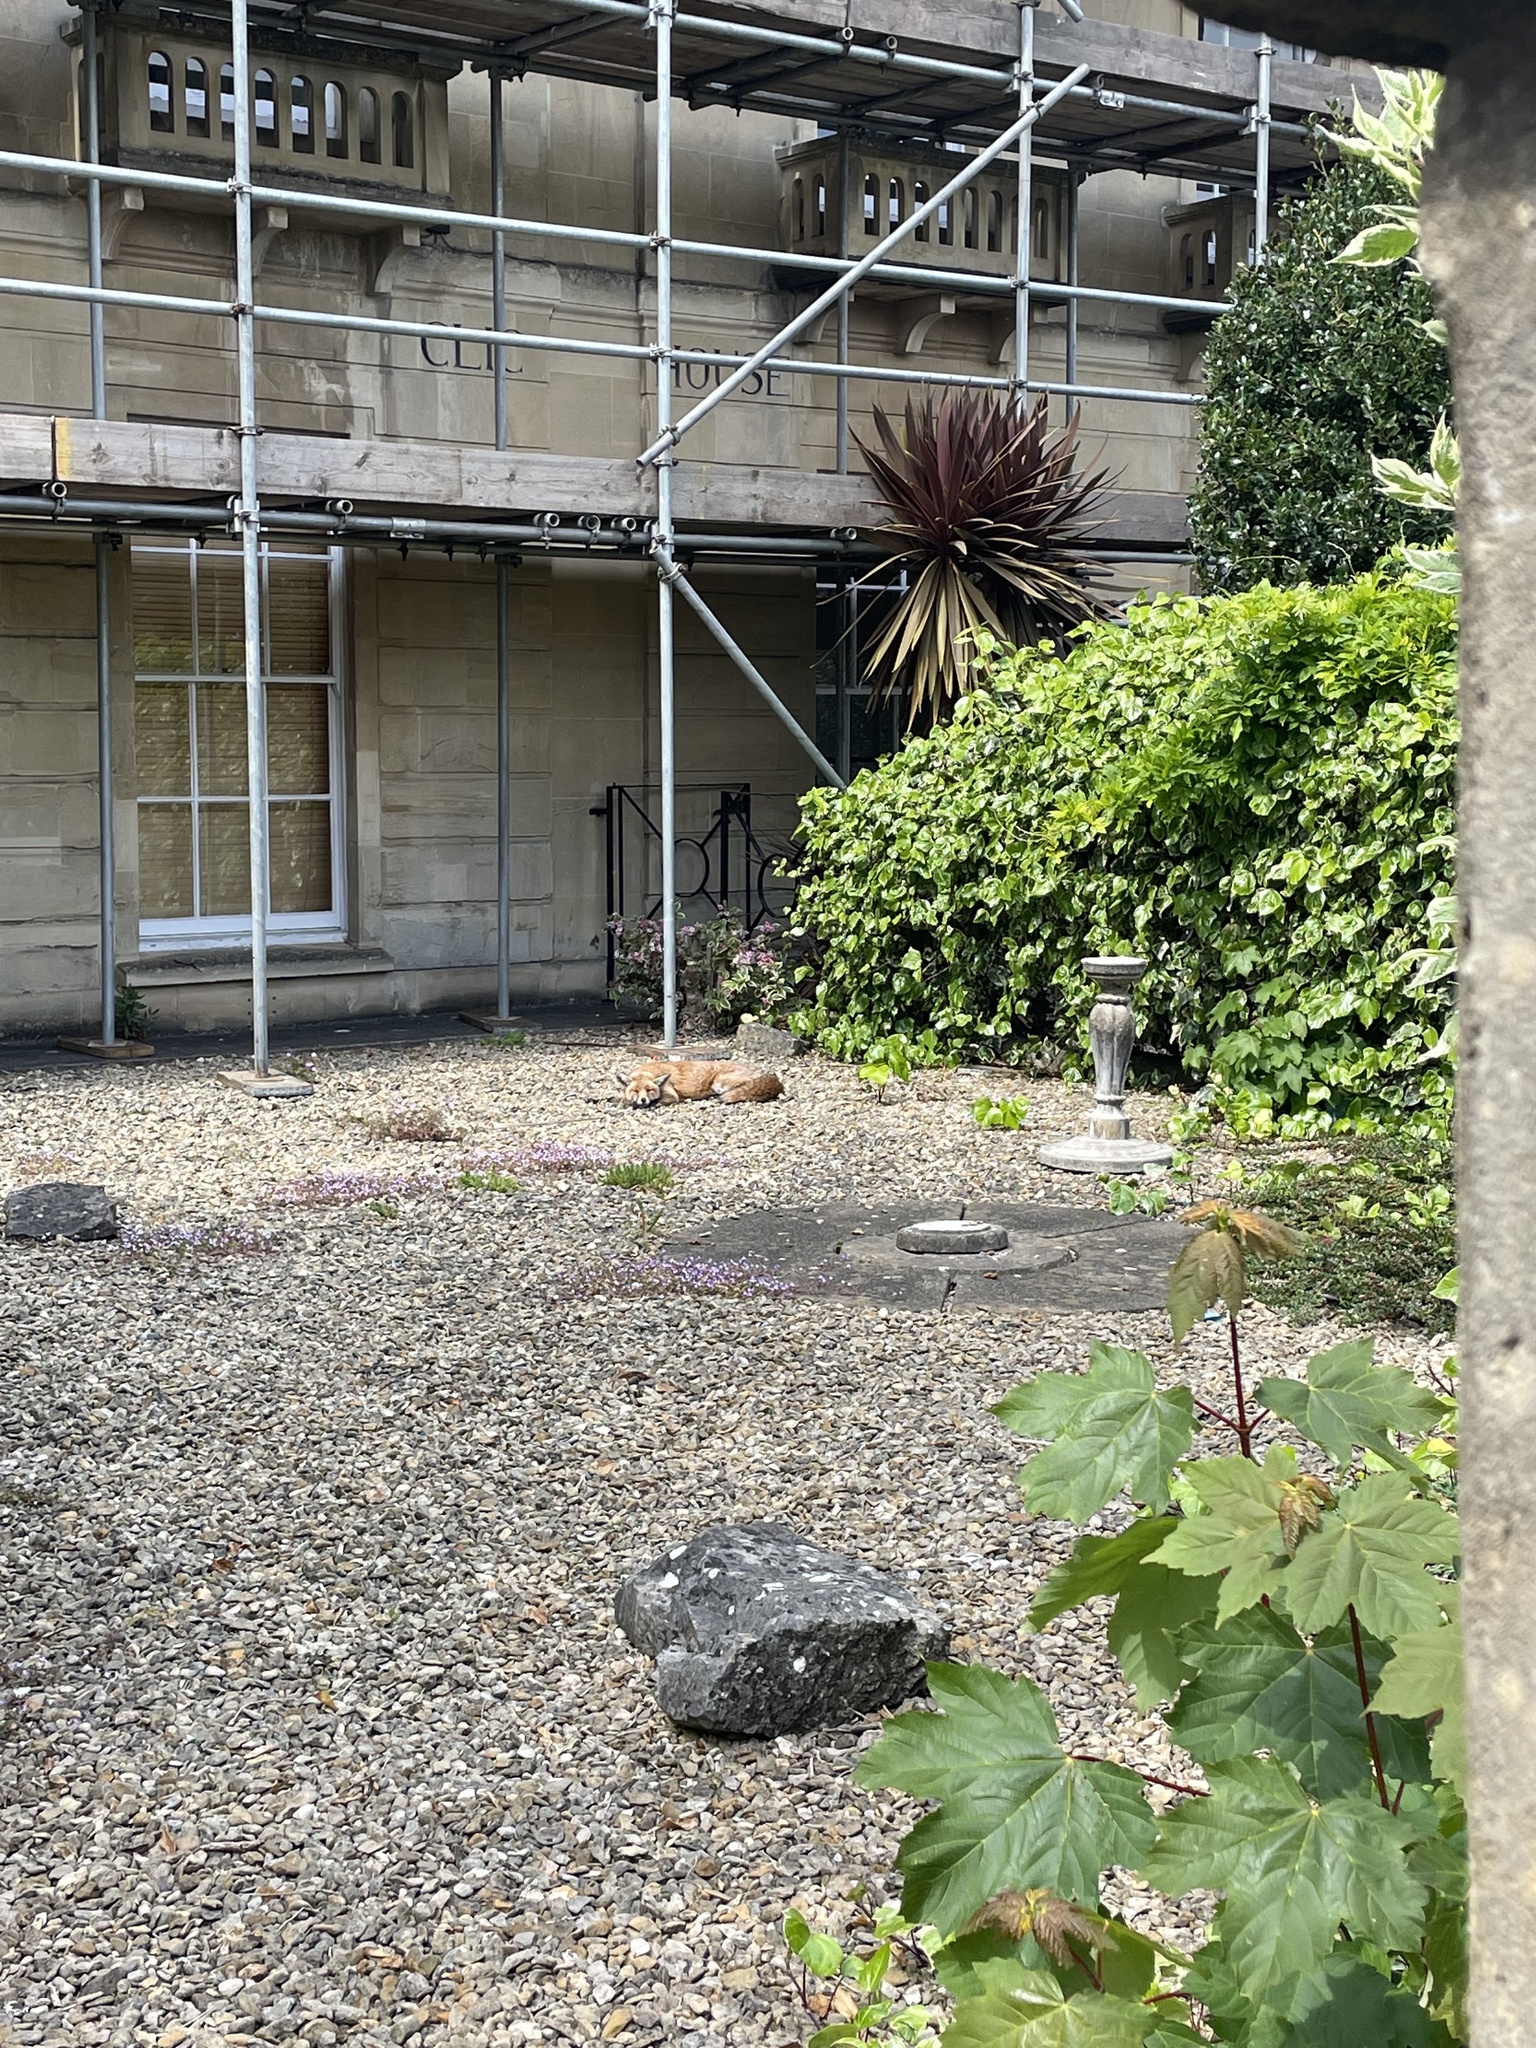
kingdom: Animalia
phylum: Chordata
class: Mammalia
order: Carnivora
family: Canidae
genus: Vulpes
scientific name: Vulpes vulpes
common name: Red fox
